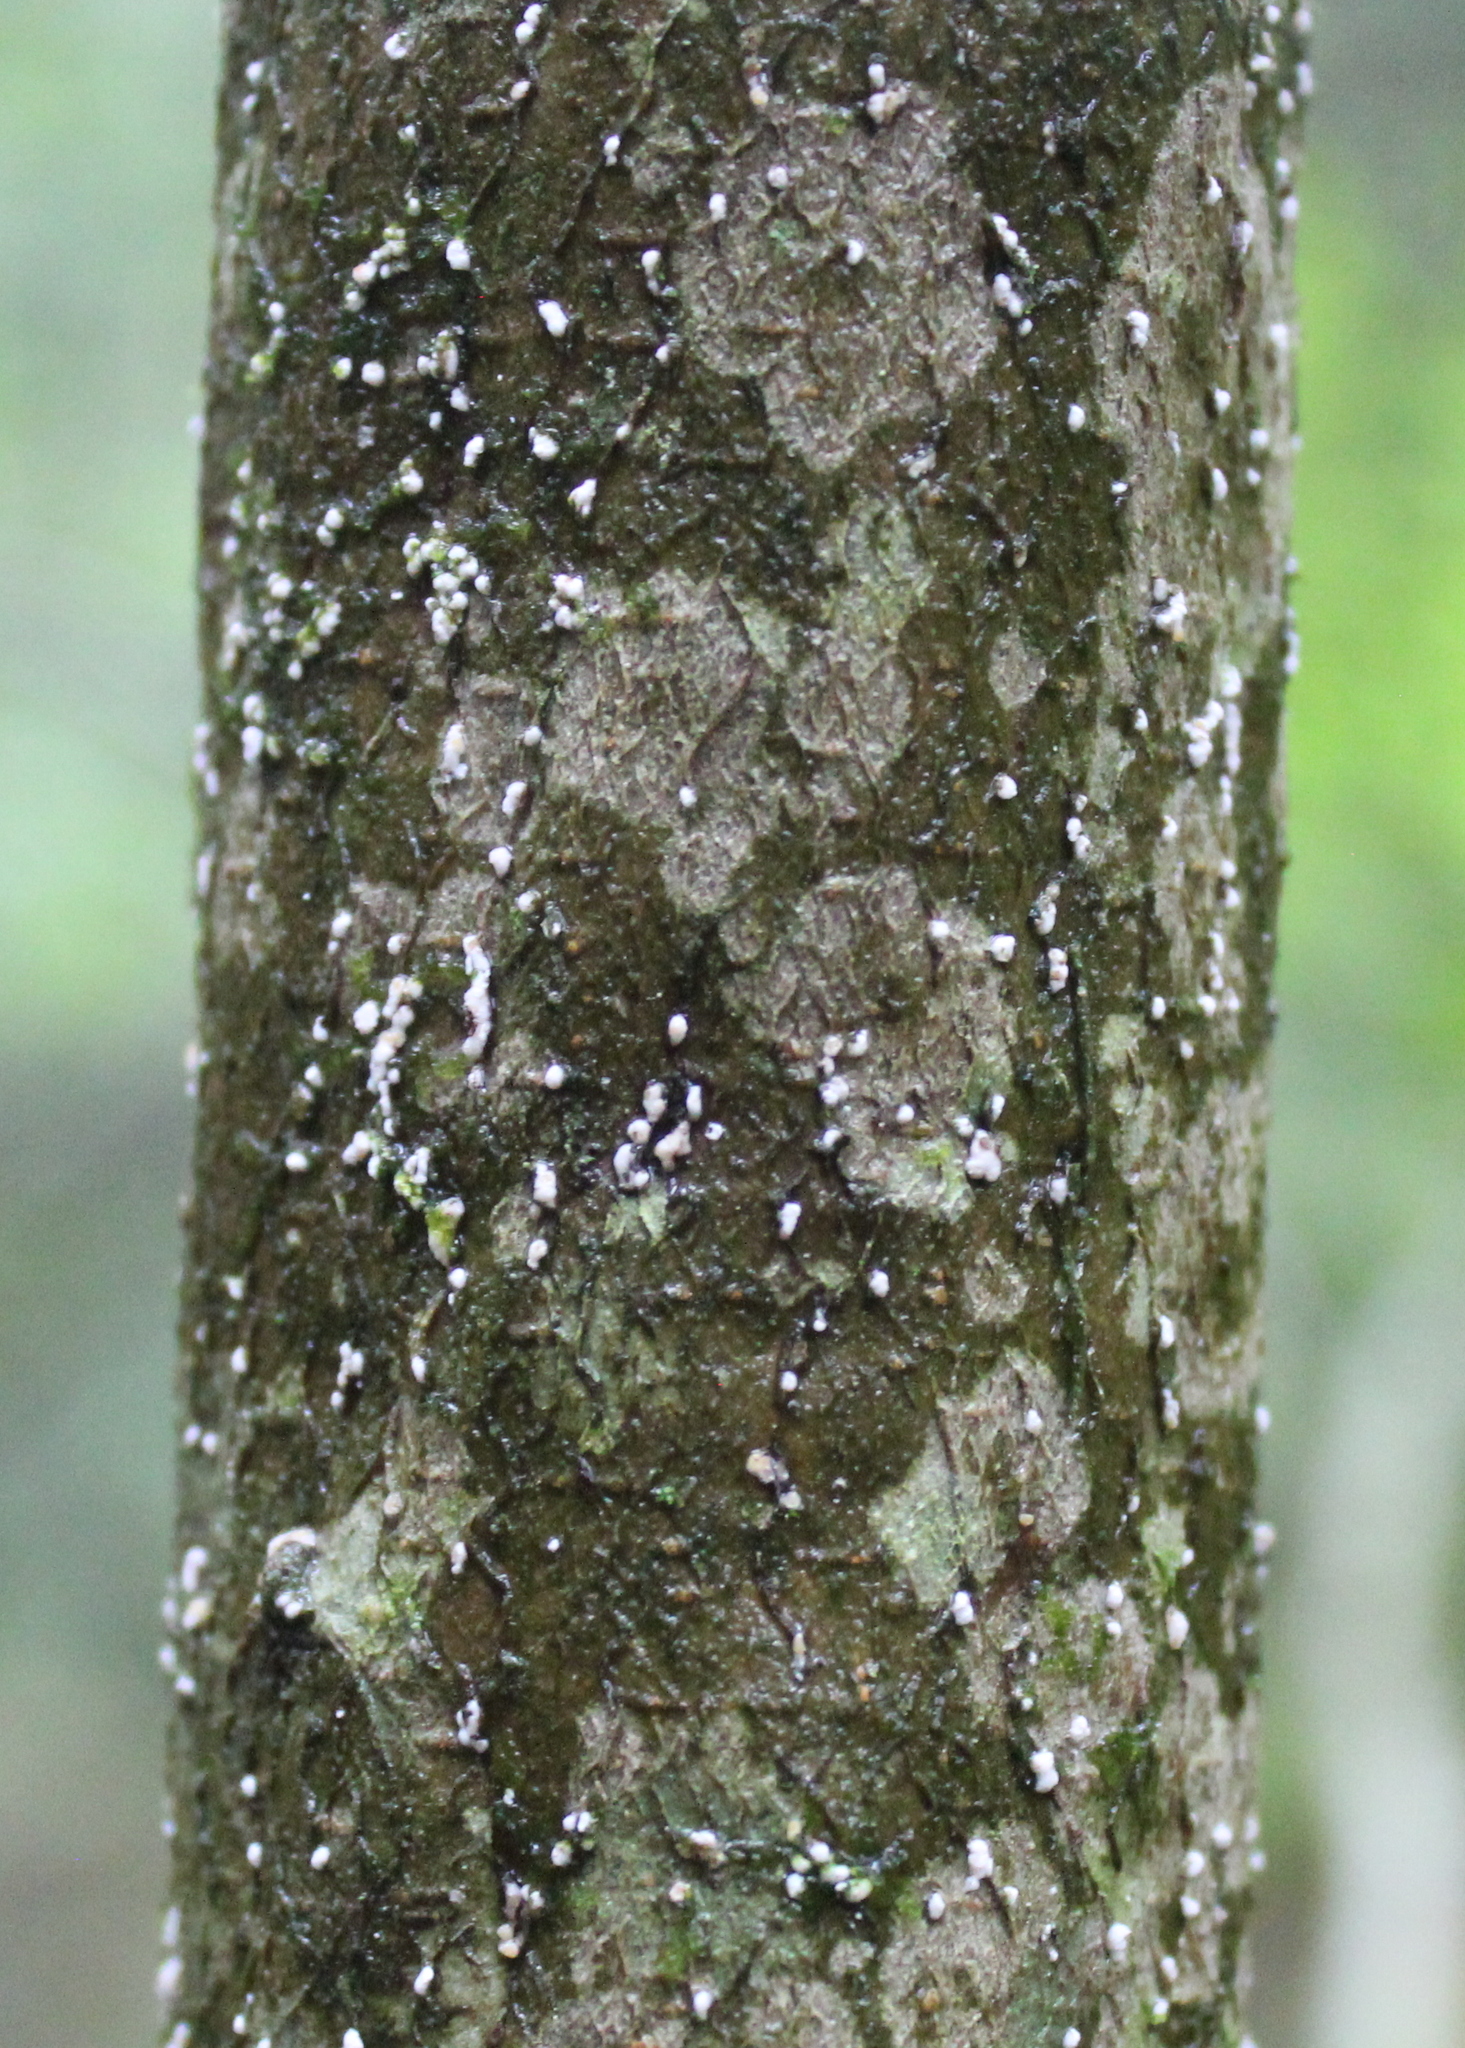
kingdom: Animalia
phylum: Arthropoda
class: Insecta
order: Hemiptera
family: Eriococcidae
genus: Cryptococcus
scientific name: Cryptococcus fagisuga
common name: Beech scale
